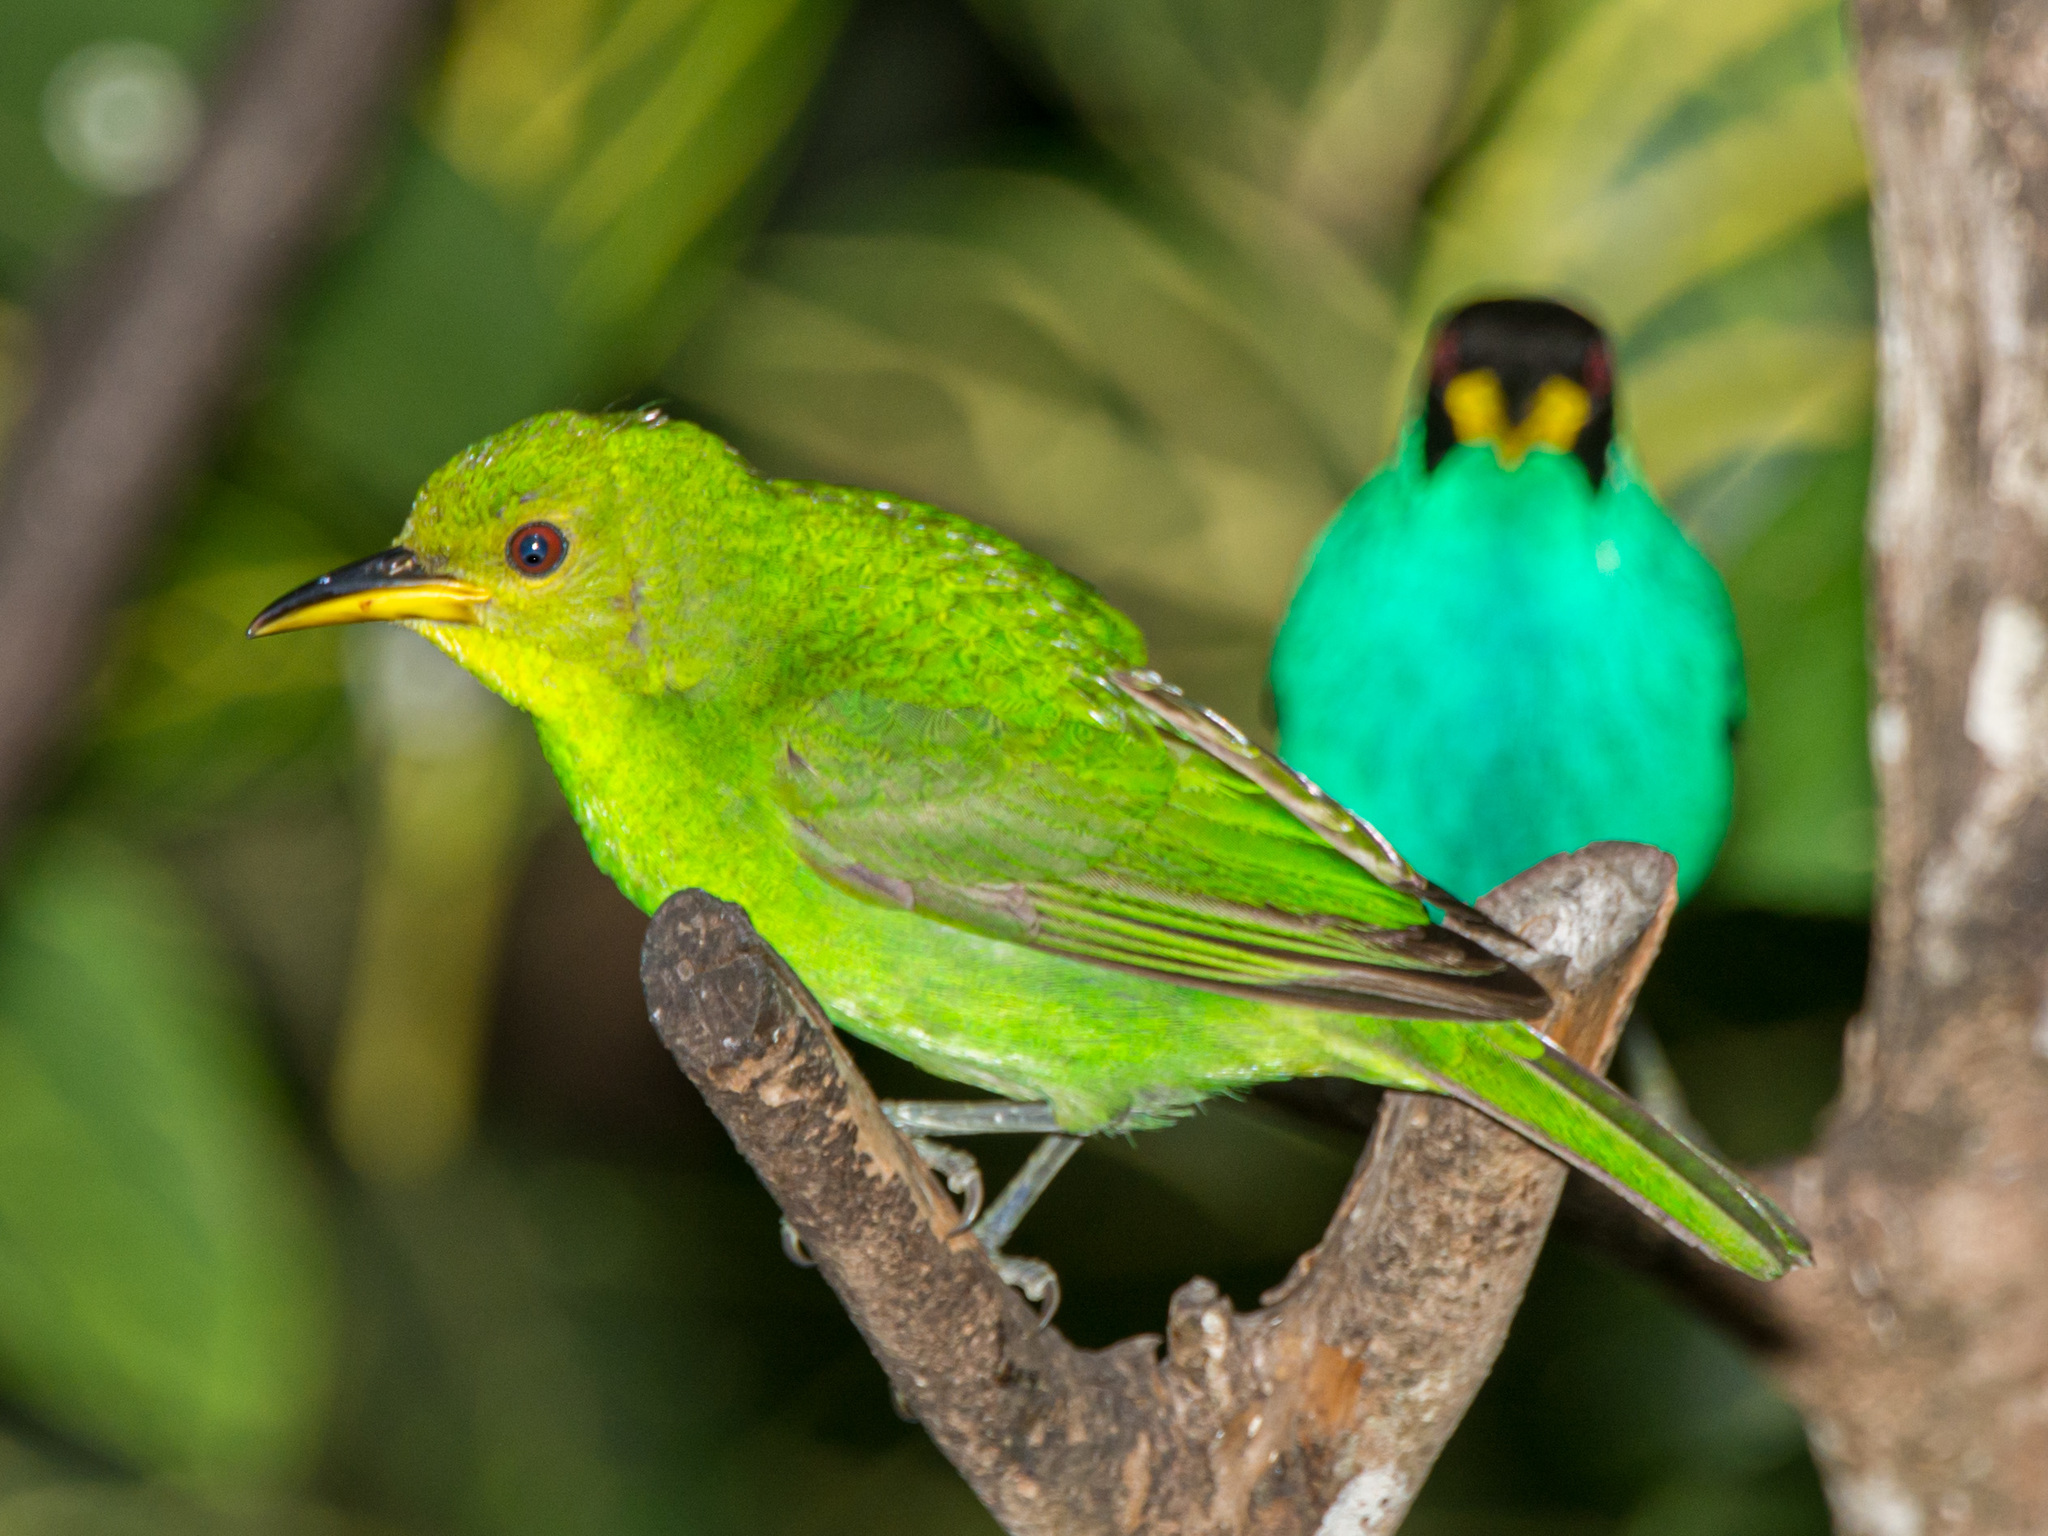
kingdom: Animalia
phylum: Chordata
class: Aves
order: Passeriformes
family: Thraupidae
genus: Chlorophanes
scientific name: Chlorophanes spiza
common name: Green honeycreeper
